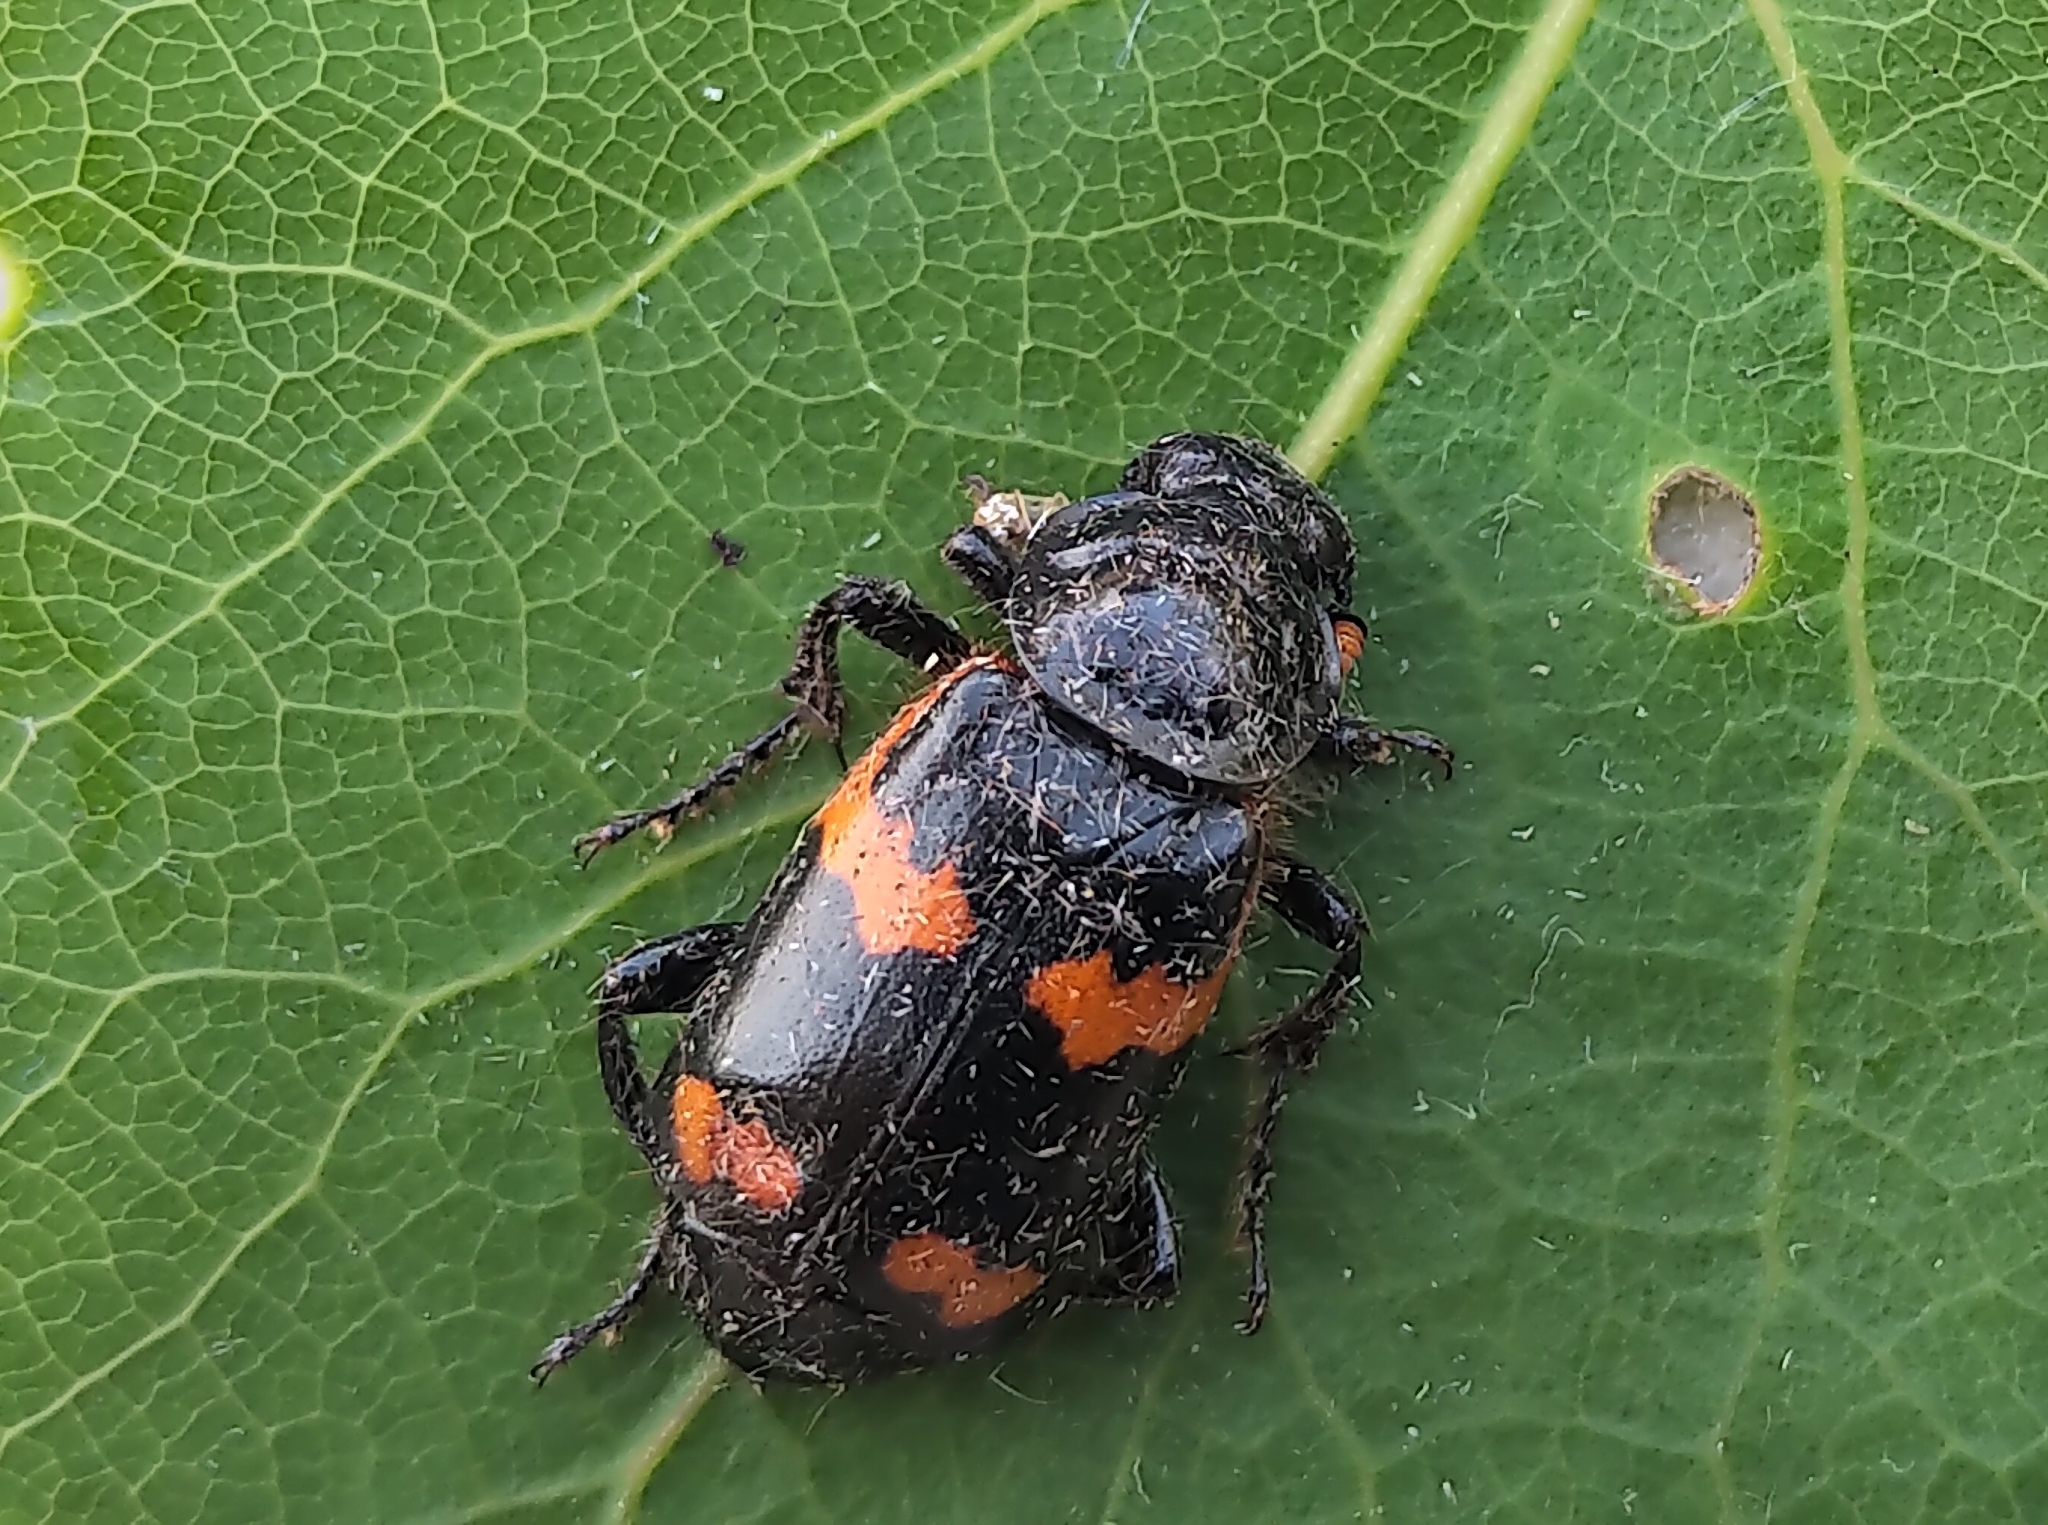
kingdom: Animalia
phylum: Arthropoda
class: Insecta
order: Coleoptera
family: Staphylinidae
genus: Nicrophorus
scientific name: Nicrophorus sayi
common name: Say's burying beetle
